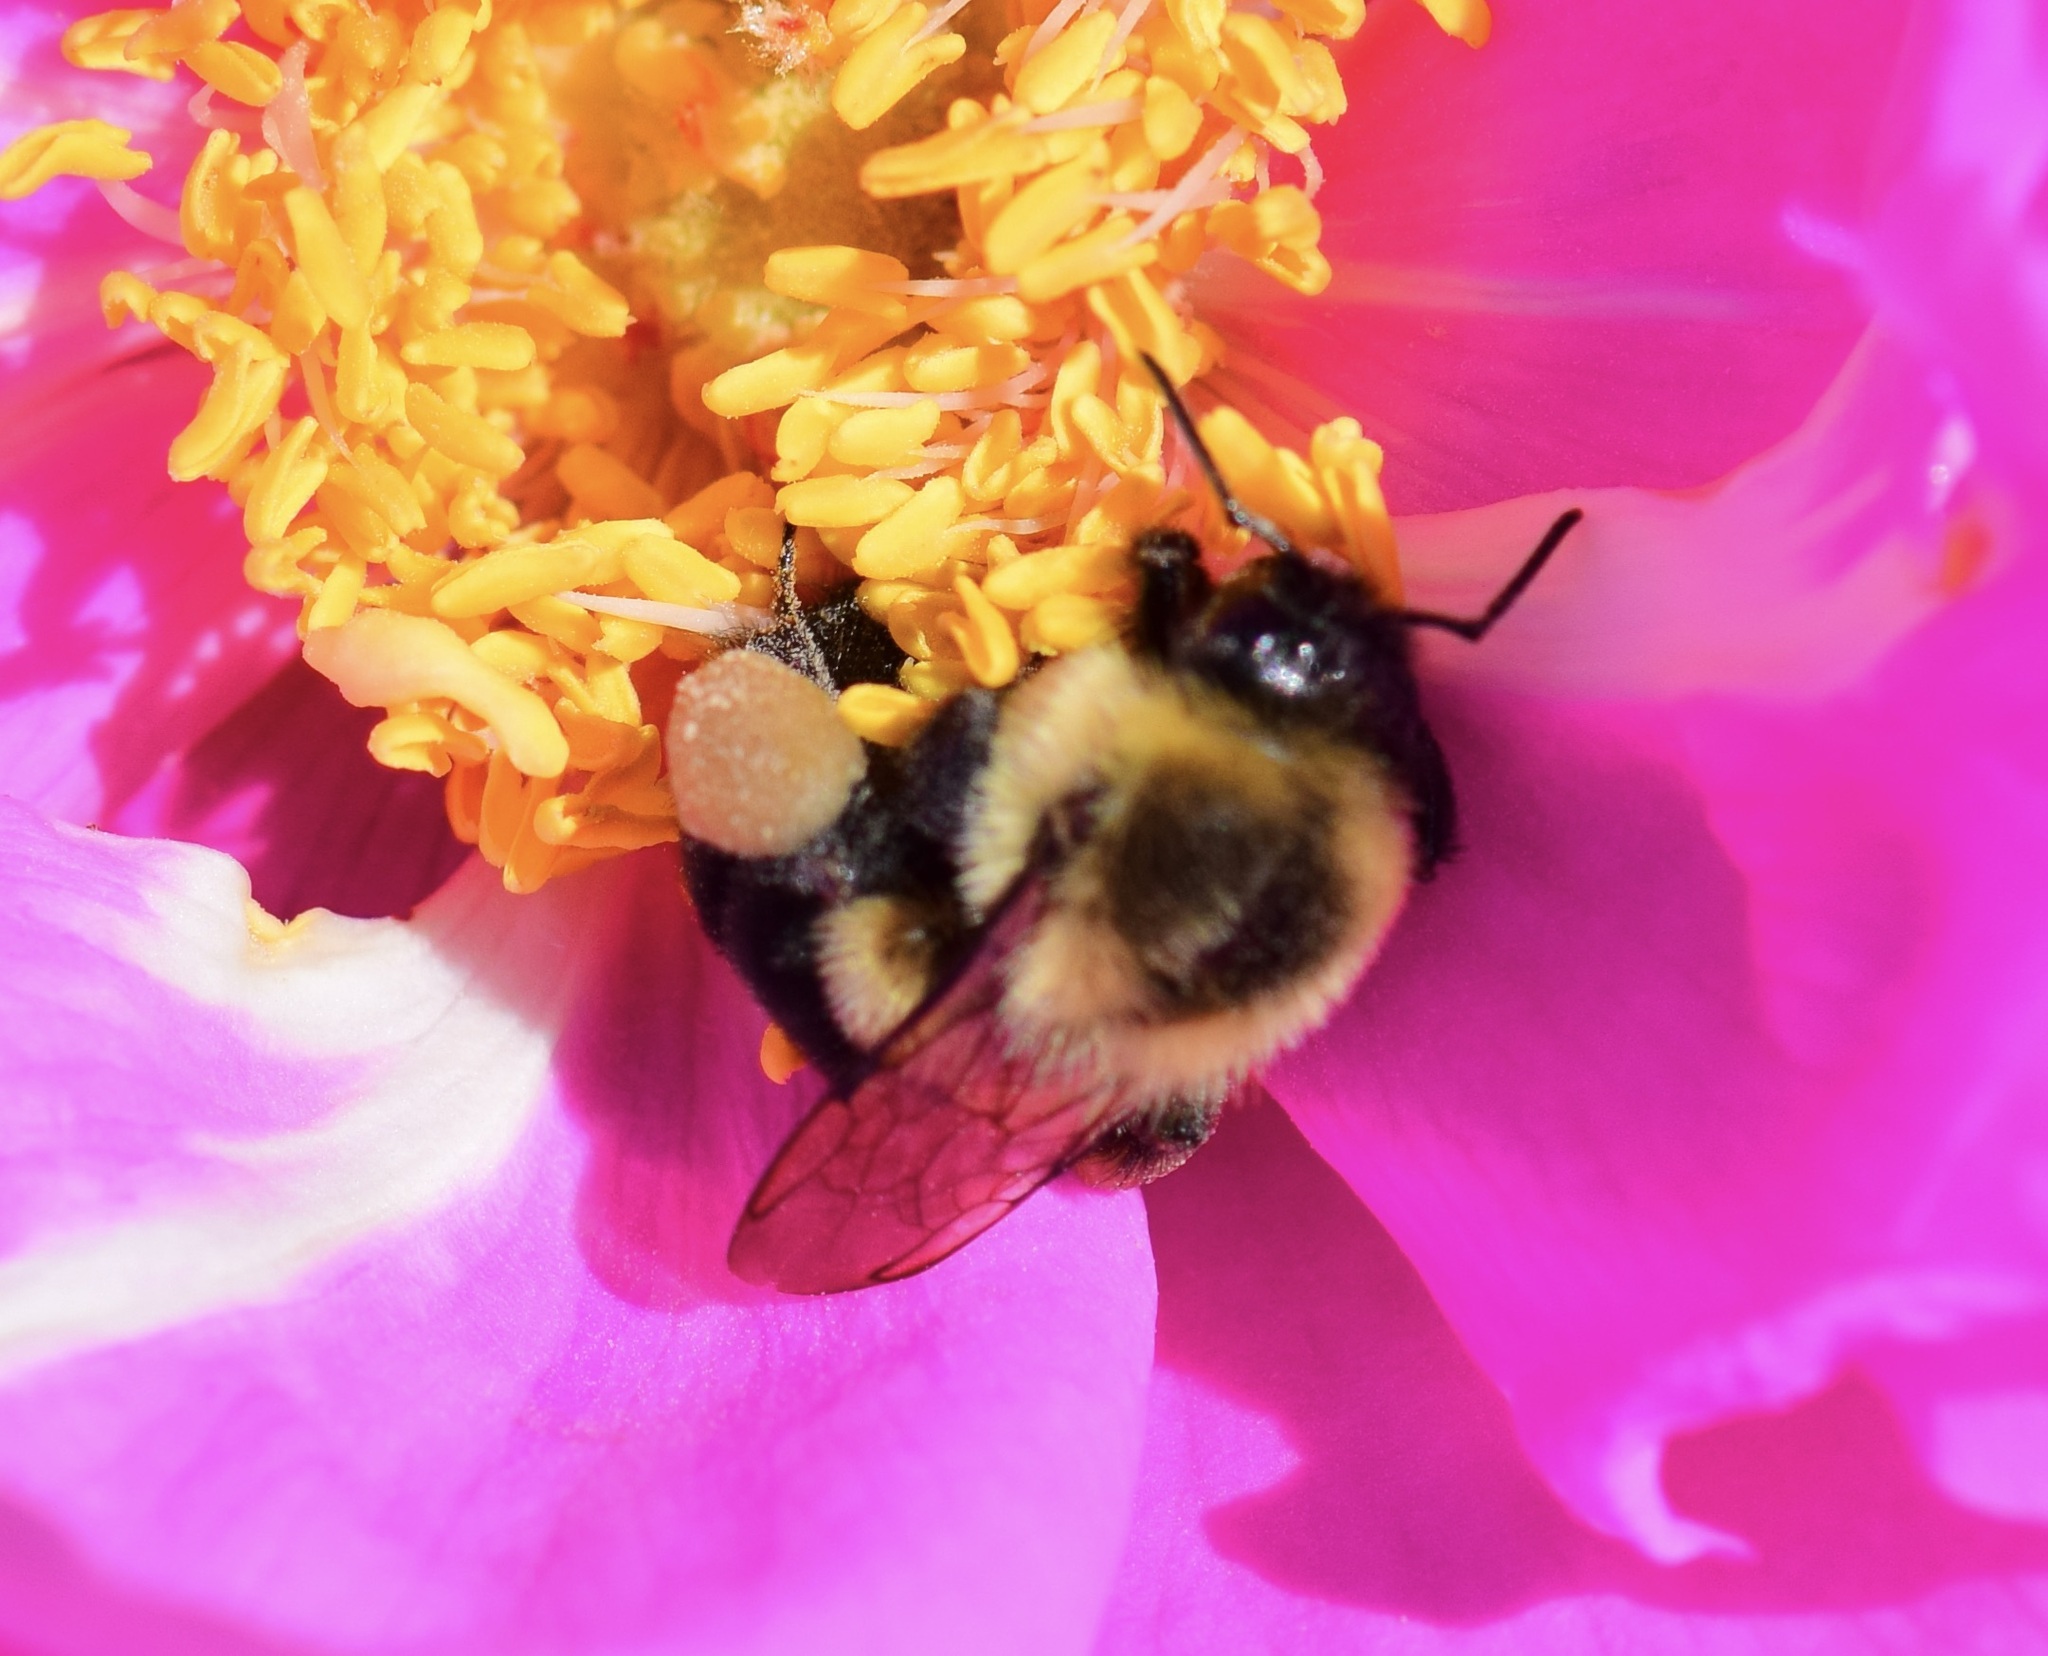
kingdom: Animalia
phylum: Arthropoda
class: Insecta
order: Hymenoptera
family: Apidae
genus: Bombus
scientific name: Bombus impatiens
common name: Common eastern bumble bee
